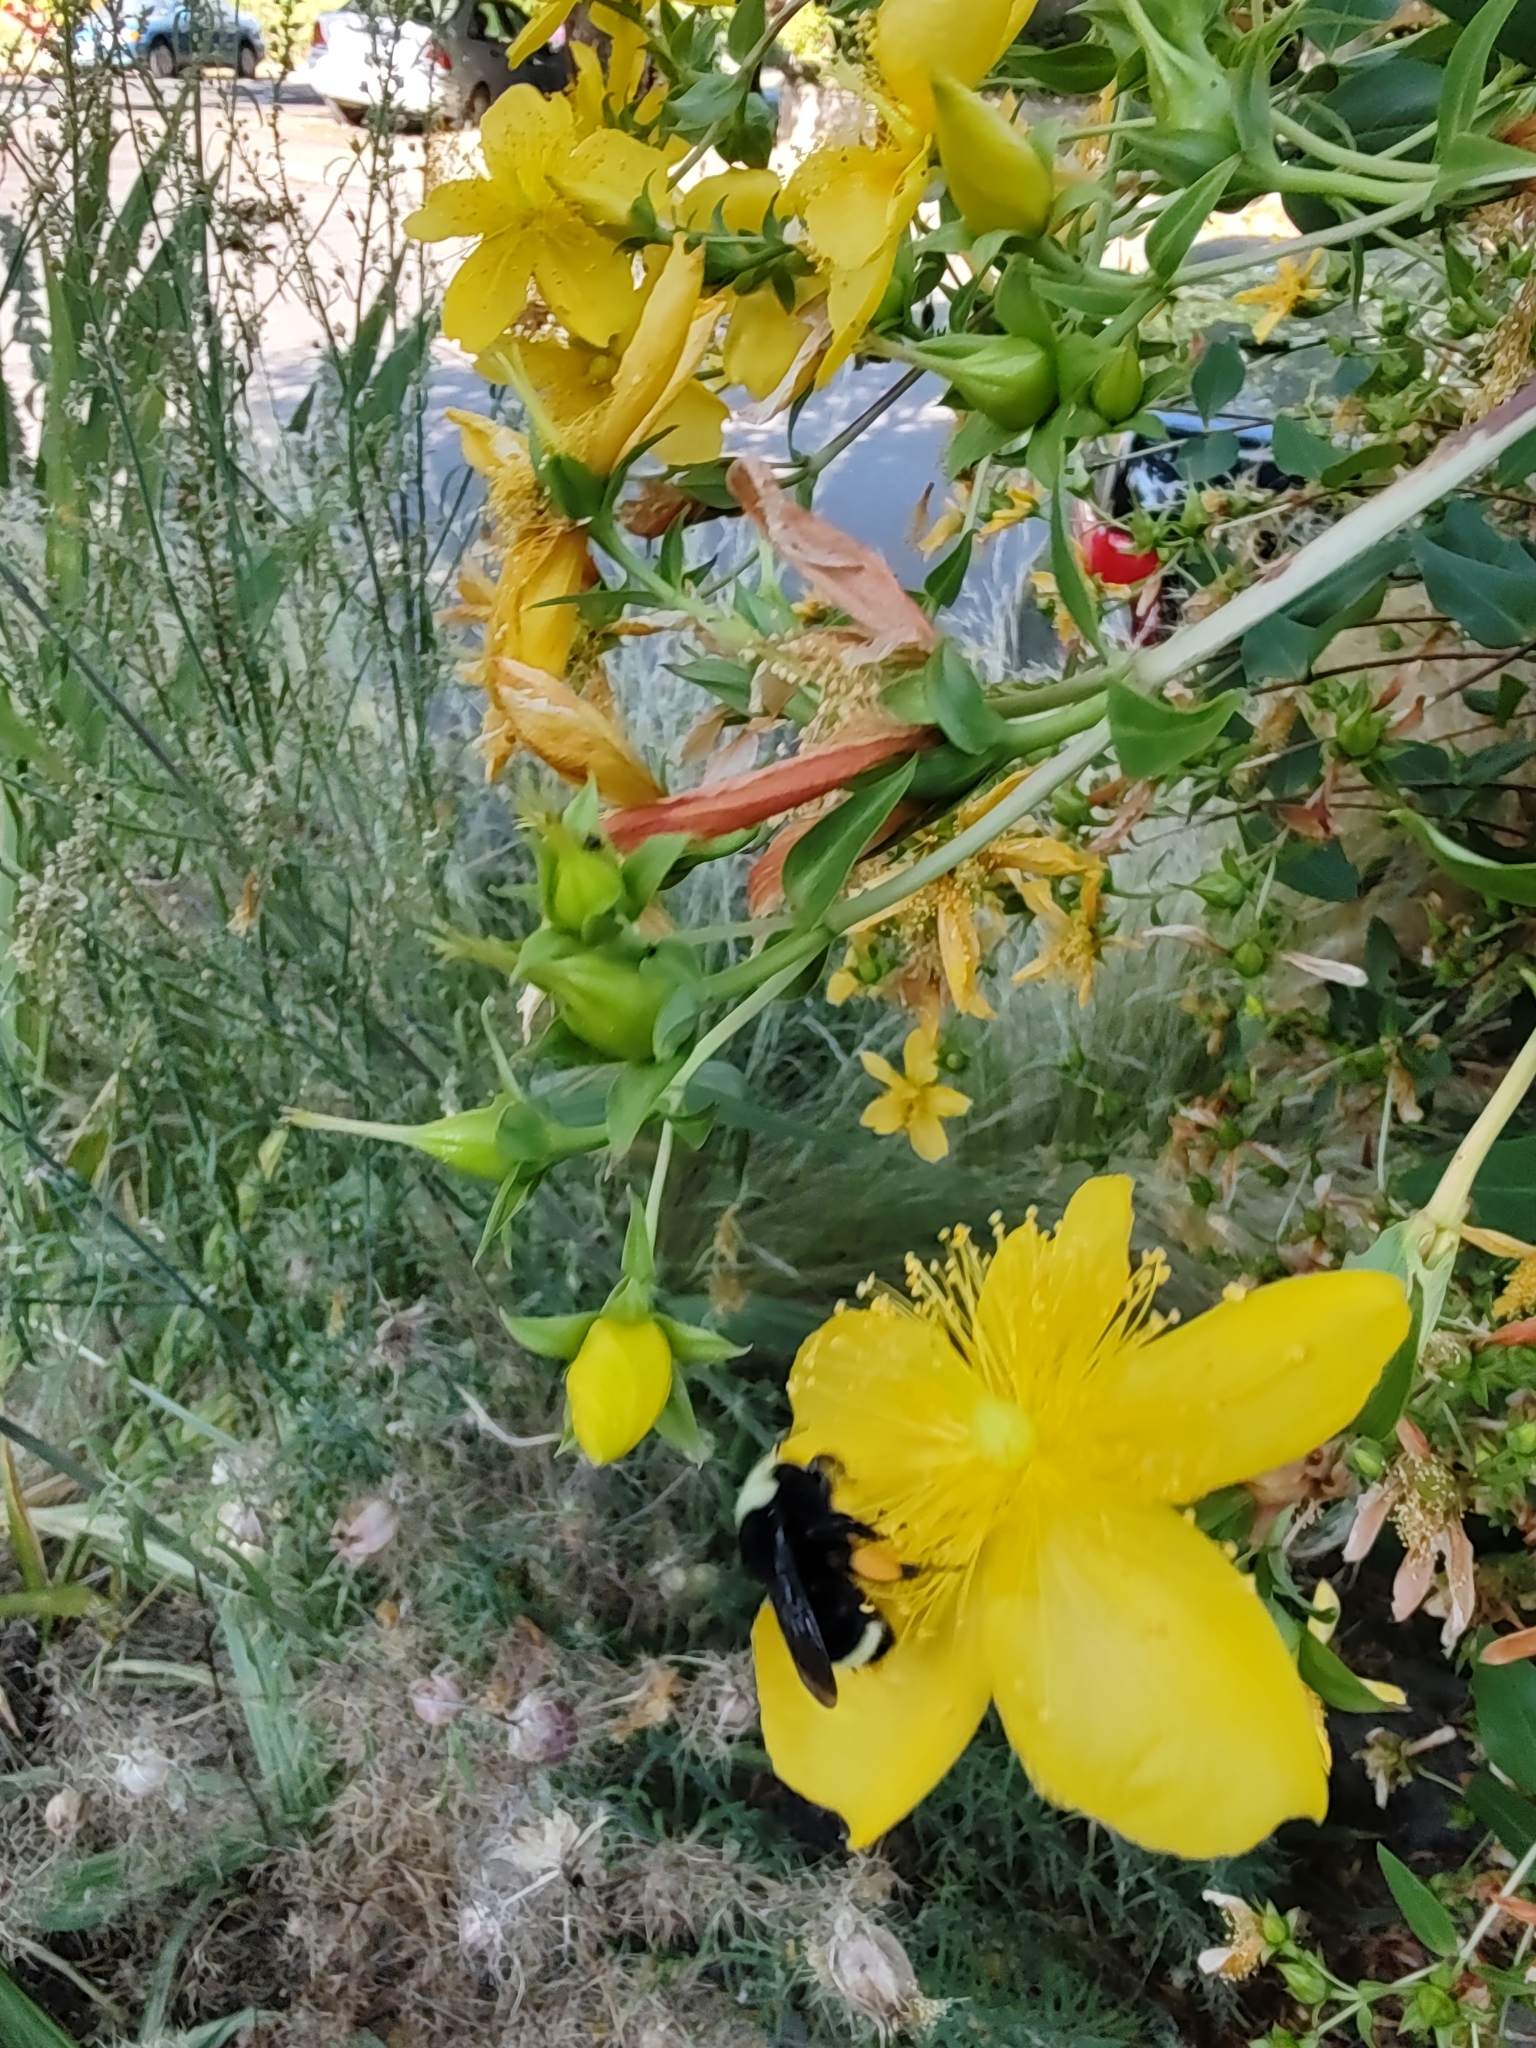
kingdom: Animalia
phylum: Arthropoda
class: Insecta
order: Hymenoptera
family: Apidae
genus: Bombus
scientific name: Bombus vosnesenskii
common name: Vosnesensky bumble bee
